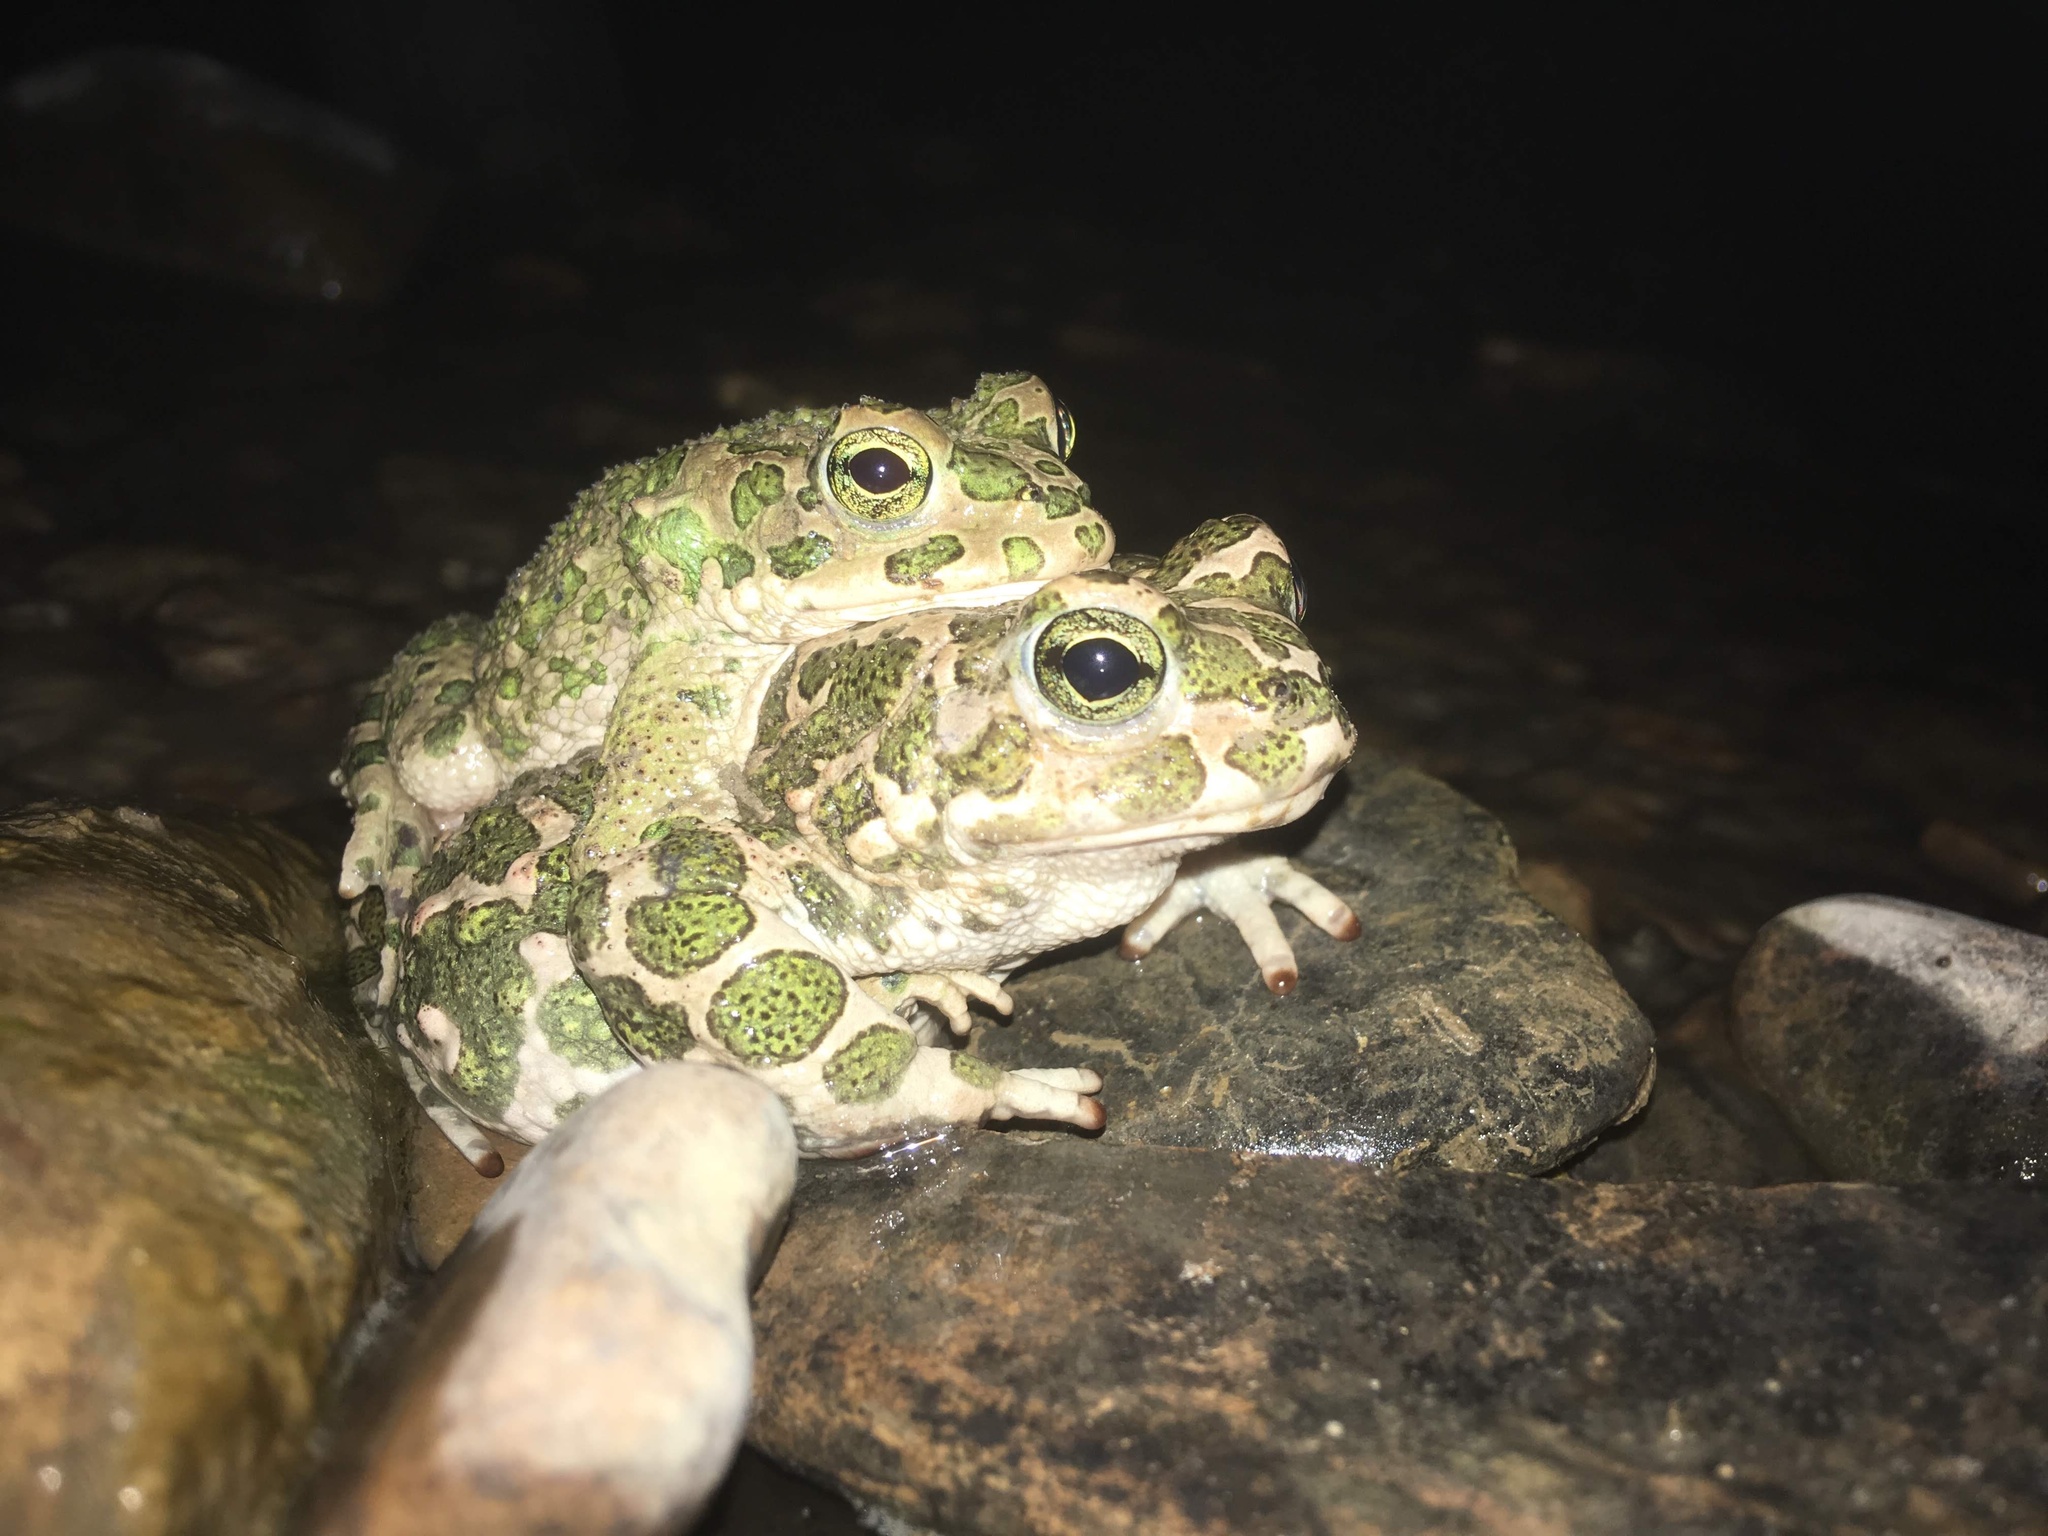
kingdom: Animalia
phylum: Chordata
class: Amphibia
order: Anura
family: Bufonidae
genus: Bufotes
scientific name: Bufotes viridis
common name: European green toad
